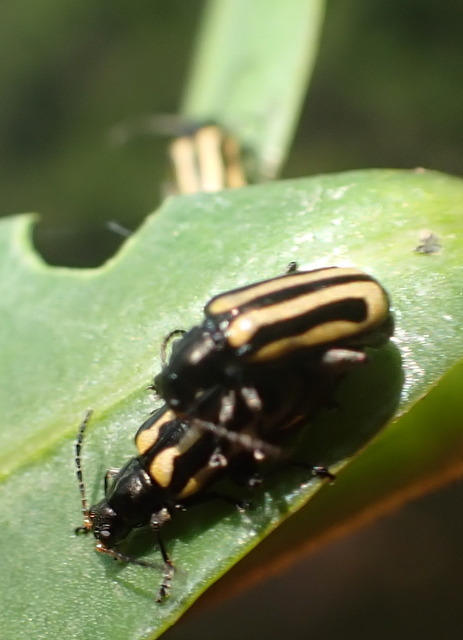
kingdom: Animalia
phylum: Arthropoda
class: Insecta
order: Coleoptera
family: Chrysomelidae
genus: Agasicles
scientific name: Agasicles hygrophila
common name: Alligatorweed flea beetle
